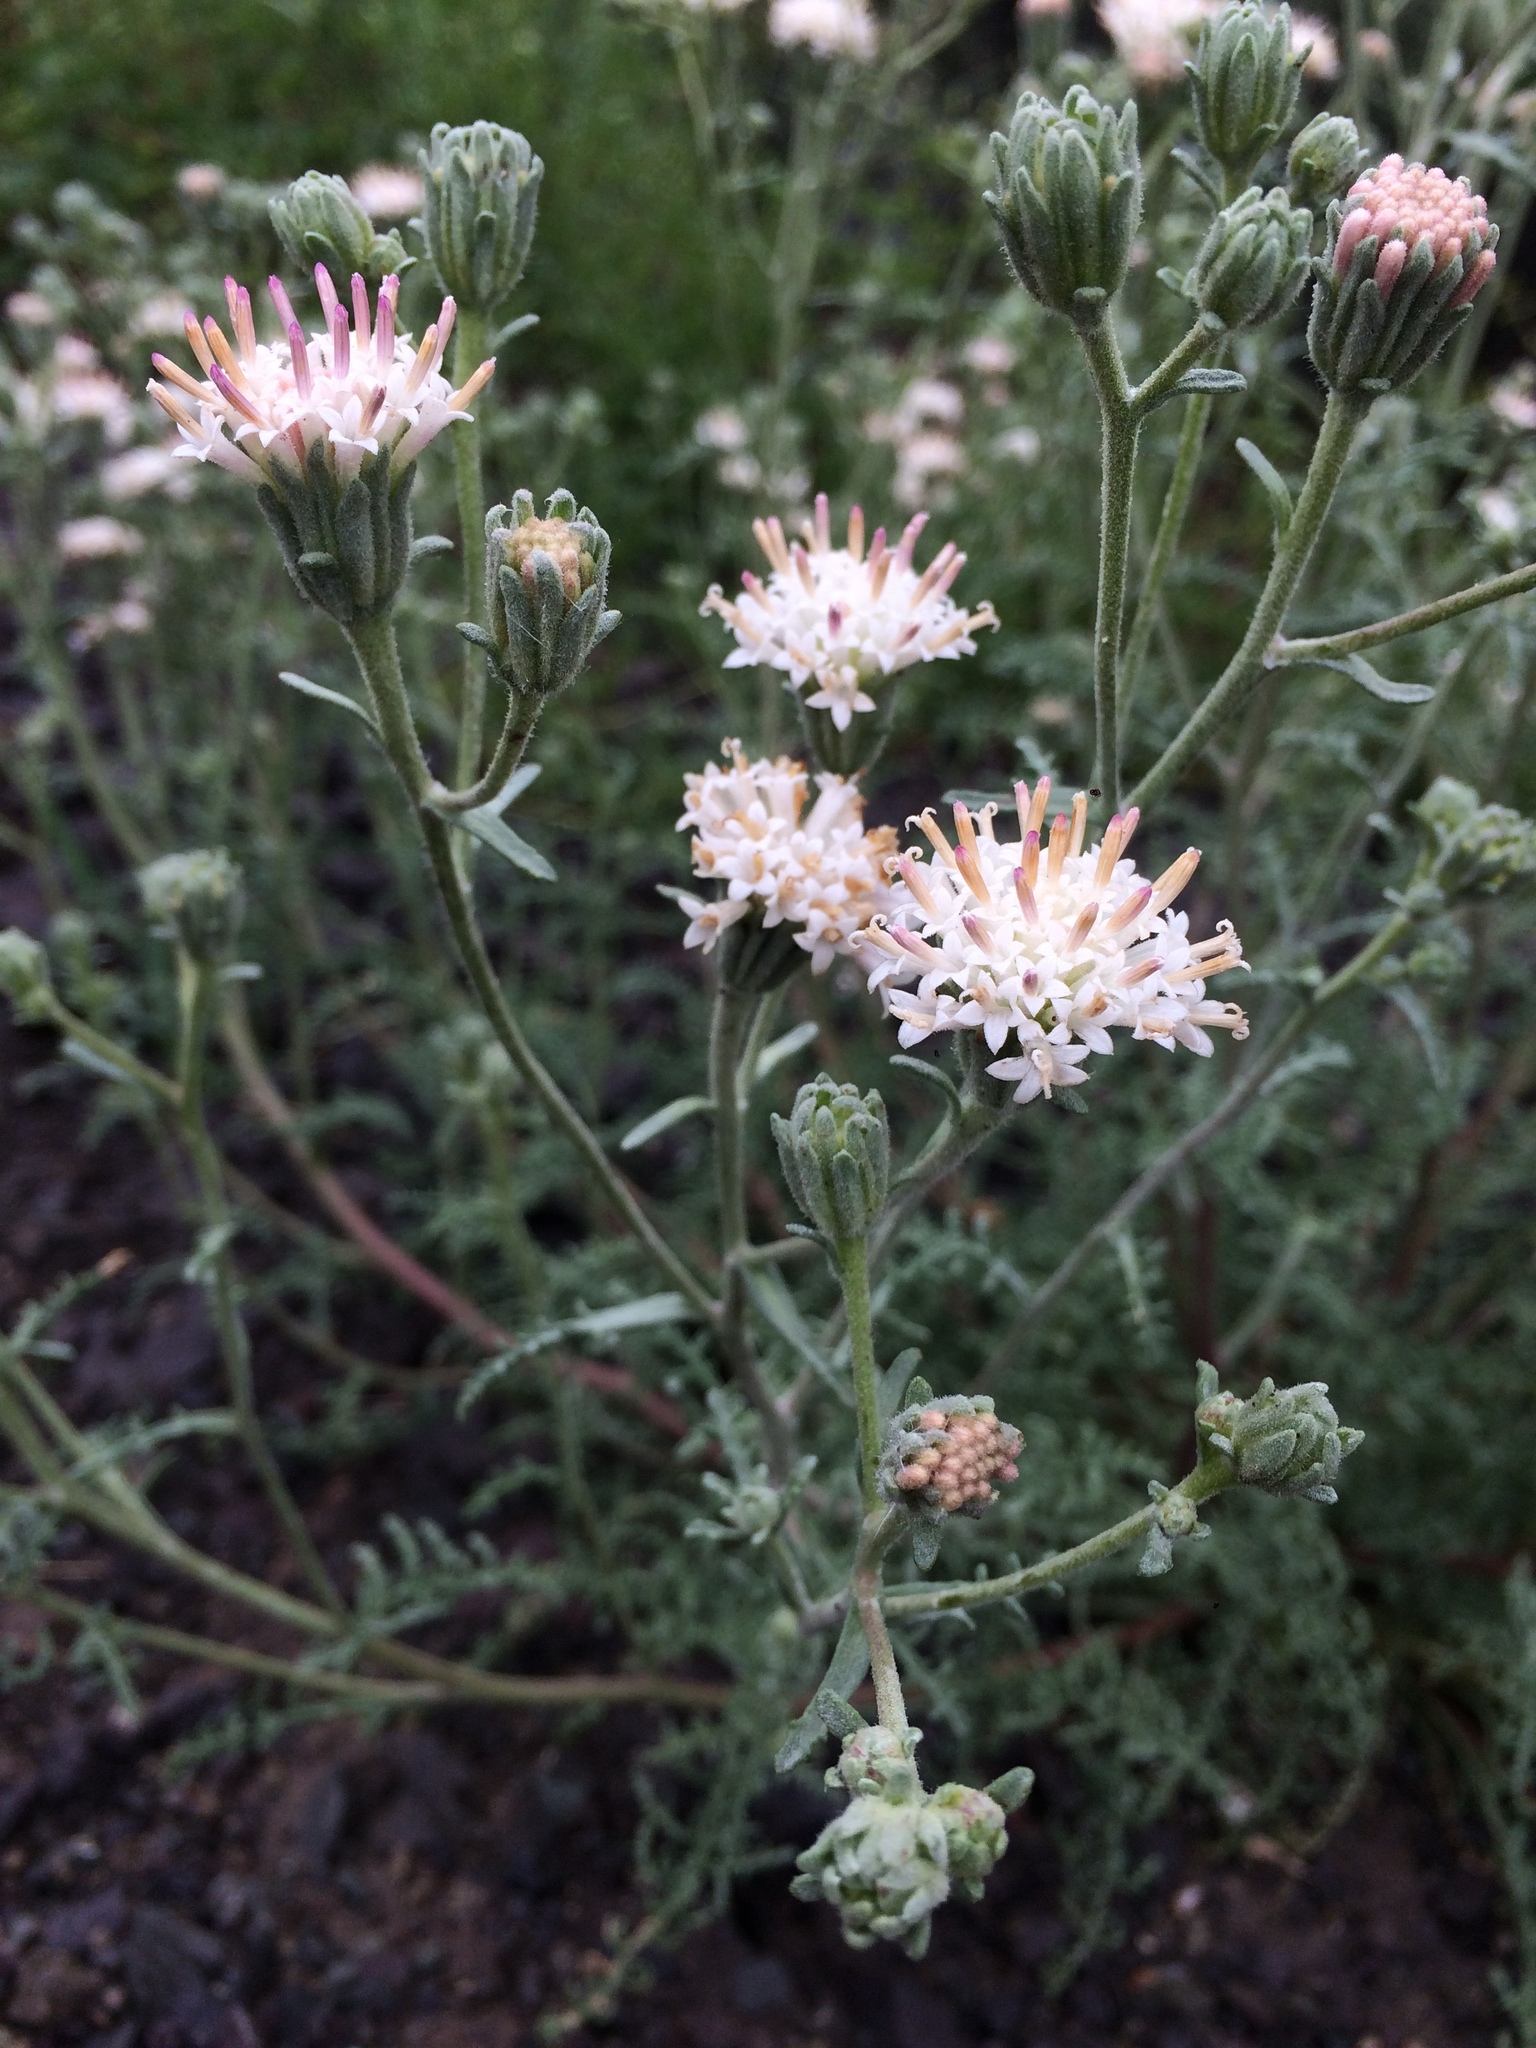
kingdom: Plantae
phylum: Tracheophyta
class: Magnoliopsida
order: Asterales
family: Asteraceae
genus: Chaenactis
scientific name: Chaenactis douglasii
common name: Hoary pincushion
